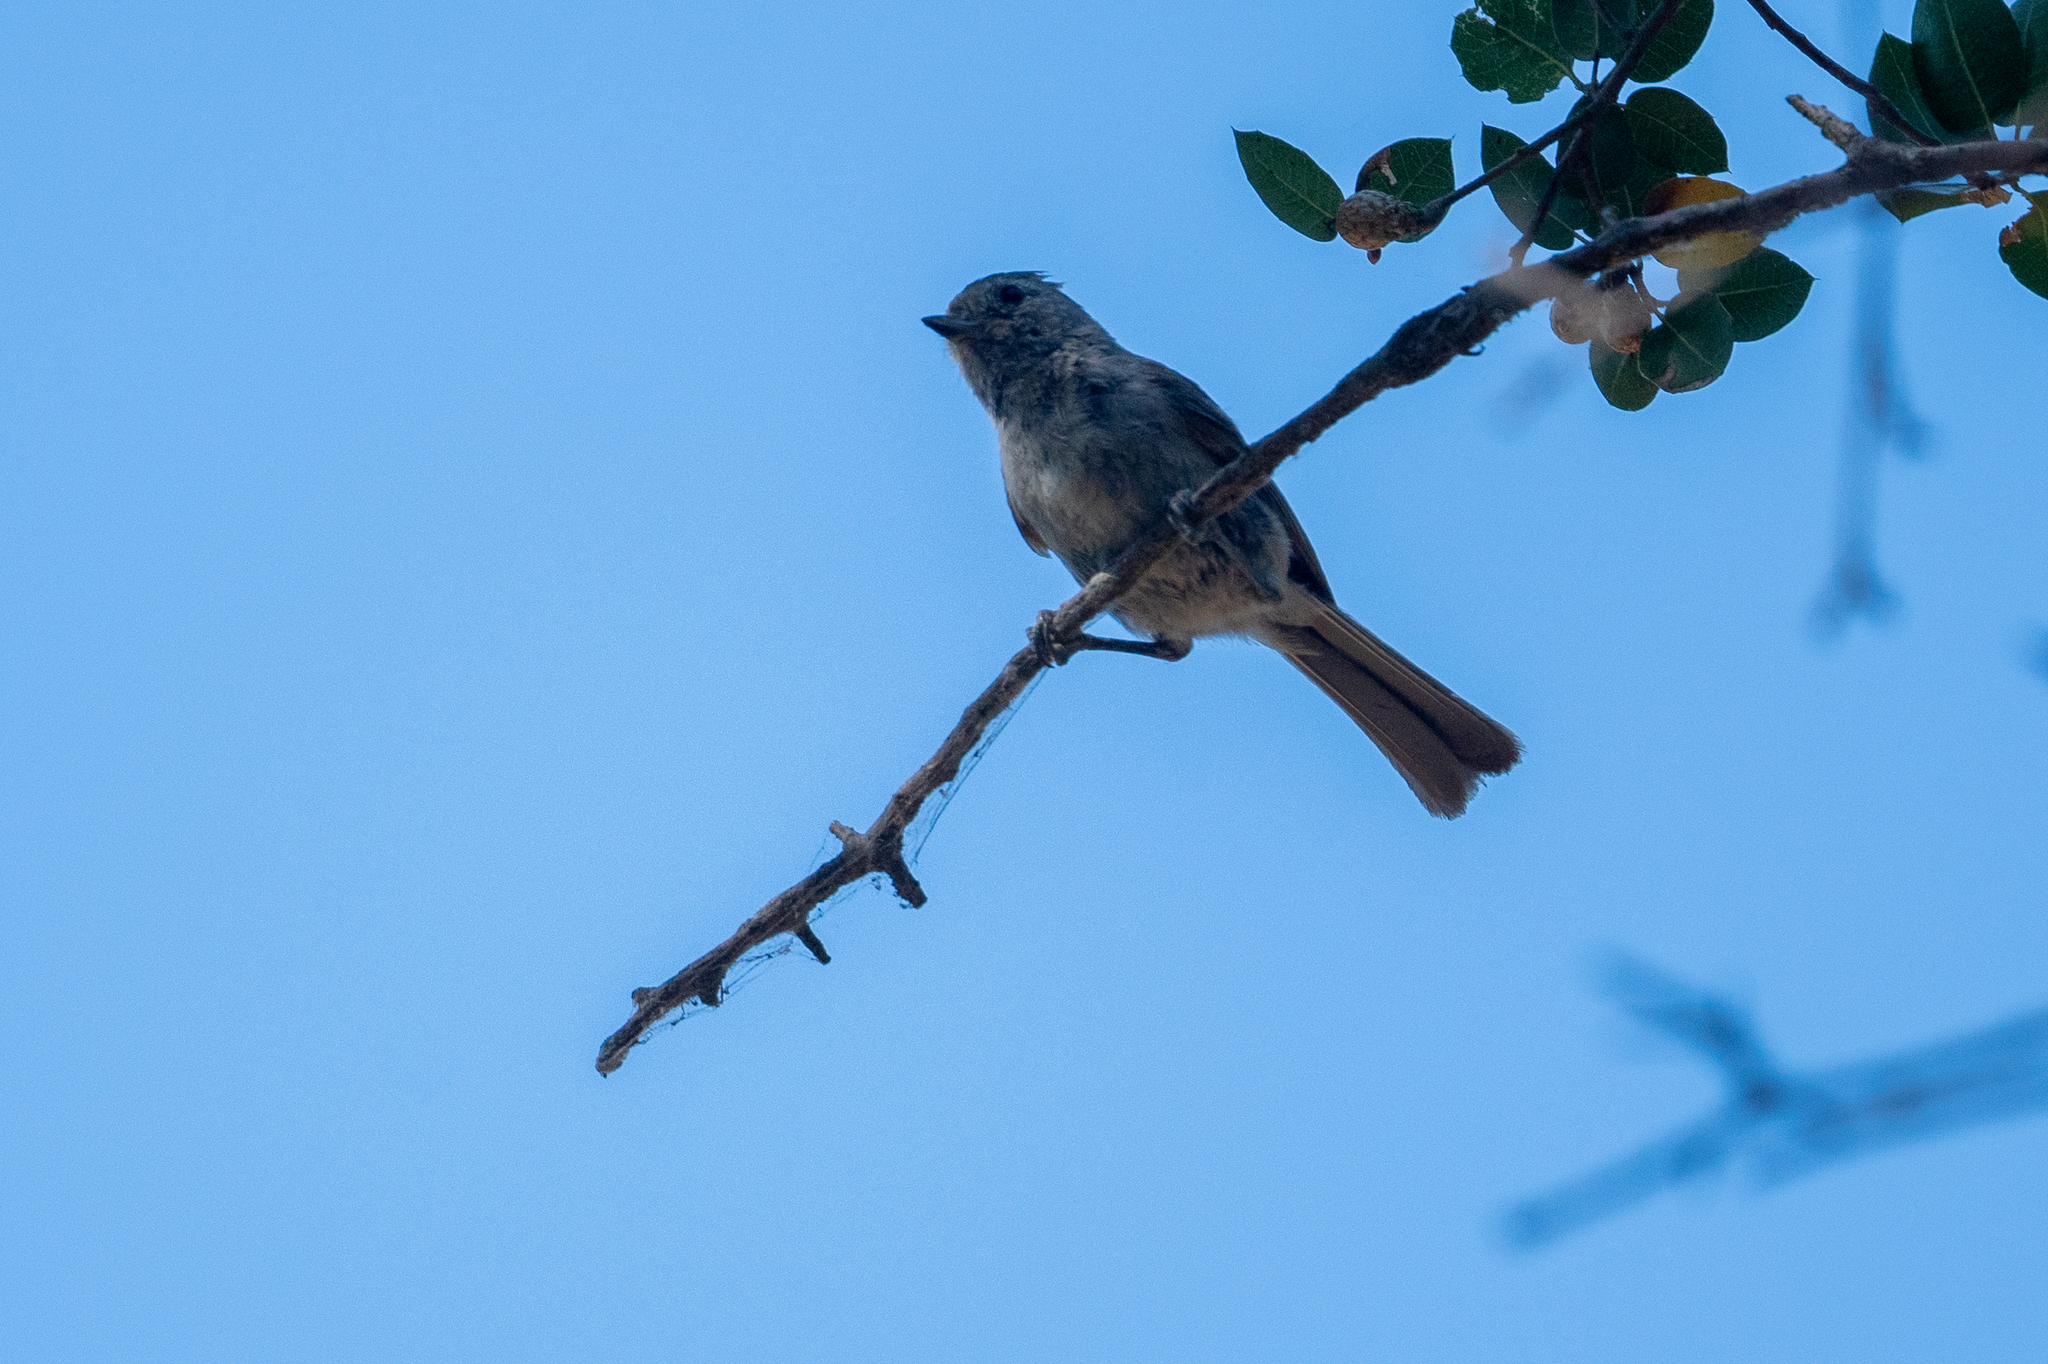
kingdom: Animalia
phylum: Chordata
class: Aves
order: Passeriformes
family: Paridae
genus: Baeolophus
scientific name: Baeolophus inornatus
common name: Oak titmouse
